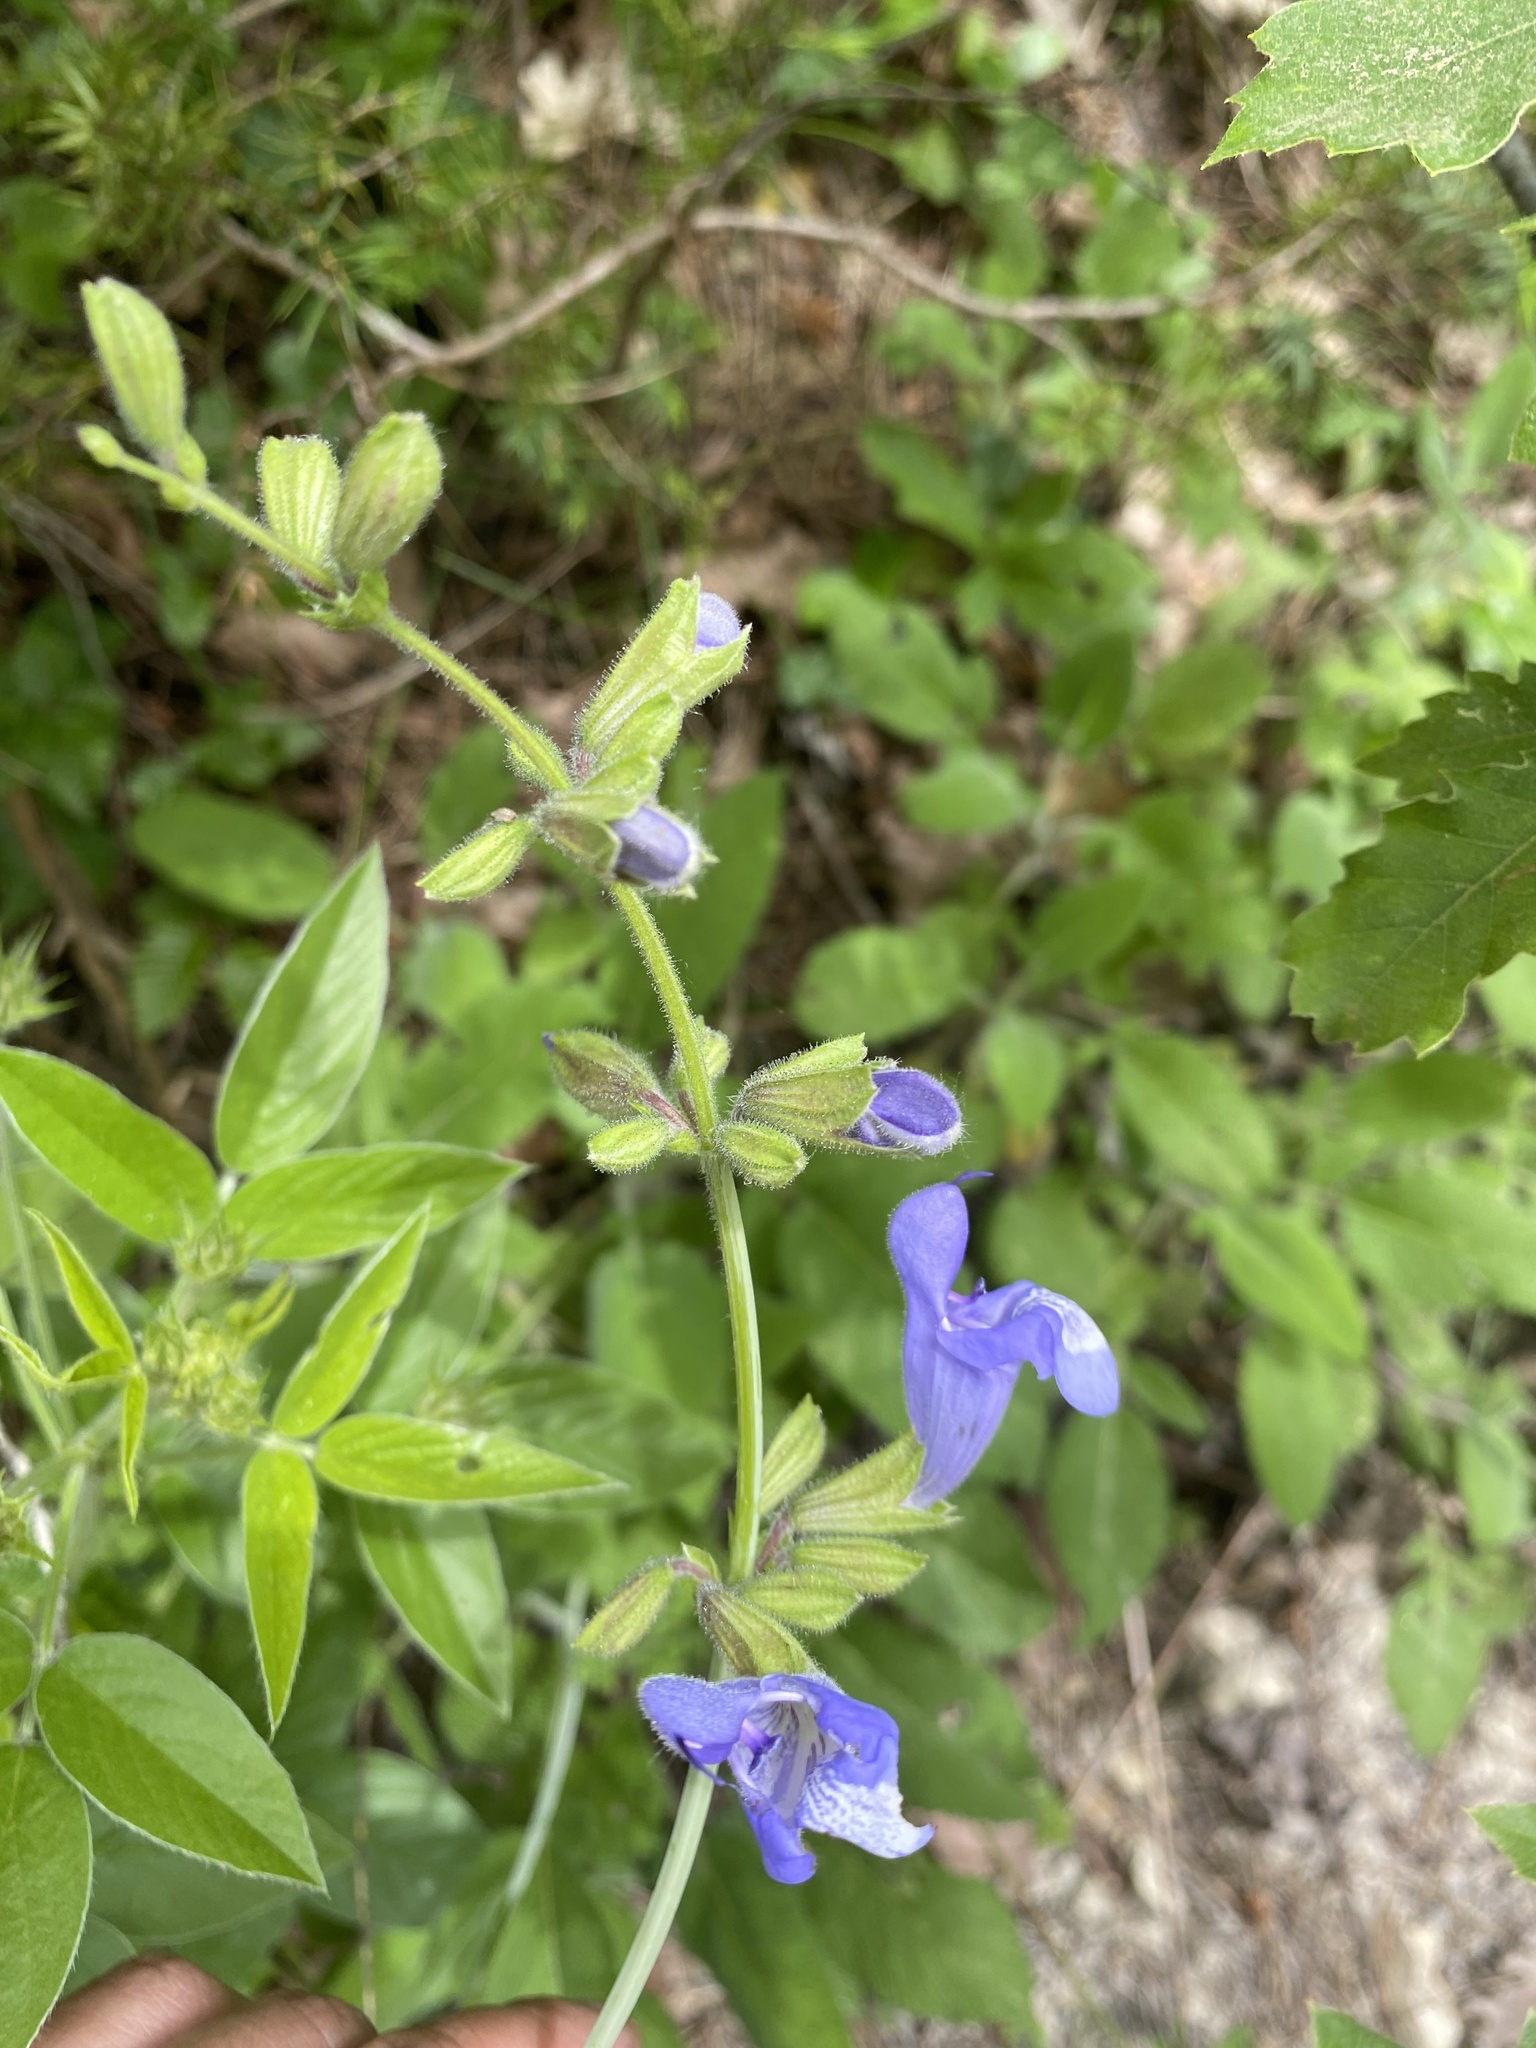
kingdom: Plantae
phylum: Tracheophyta
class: Magnoliopsida
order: Lamiales
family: Lamiaceae
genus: Salvia
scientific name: Salvia ringens
